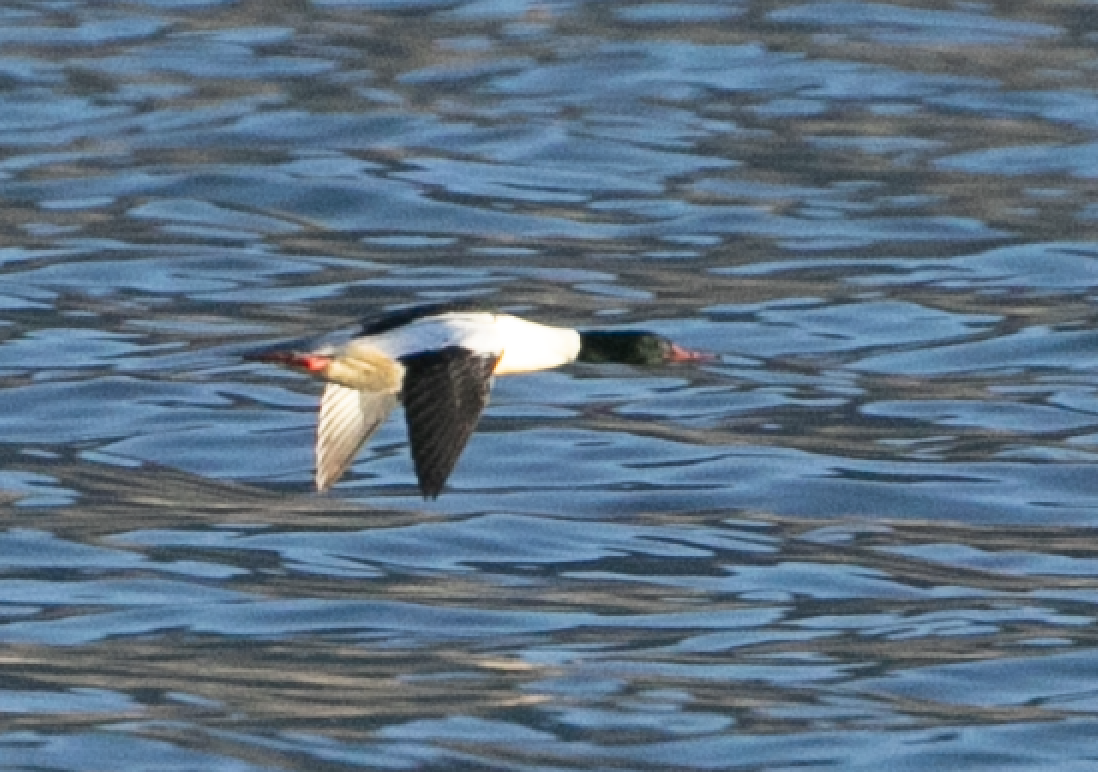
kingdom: Animalia
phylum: Chordata
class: Aves
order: Anseriformes
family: Anatidae
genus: Mergus
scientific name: Mergus merganser
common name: Common merganser
